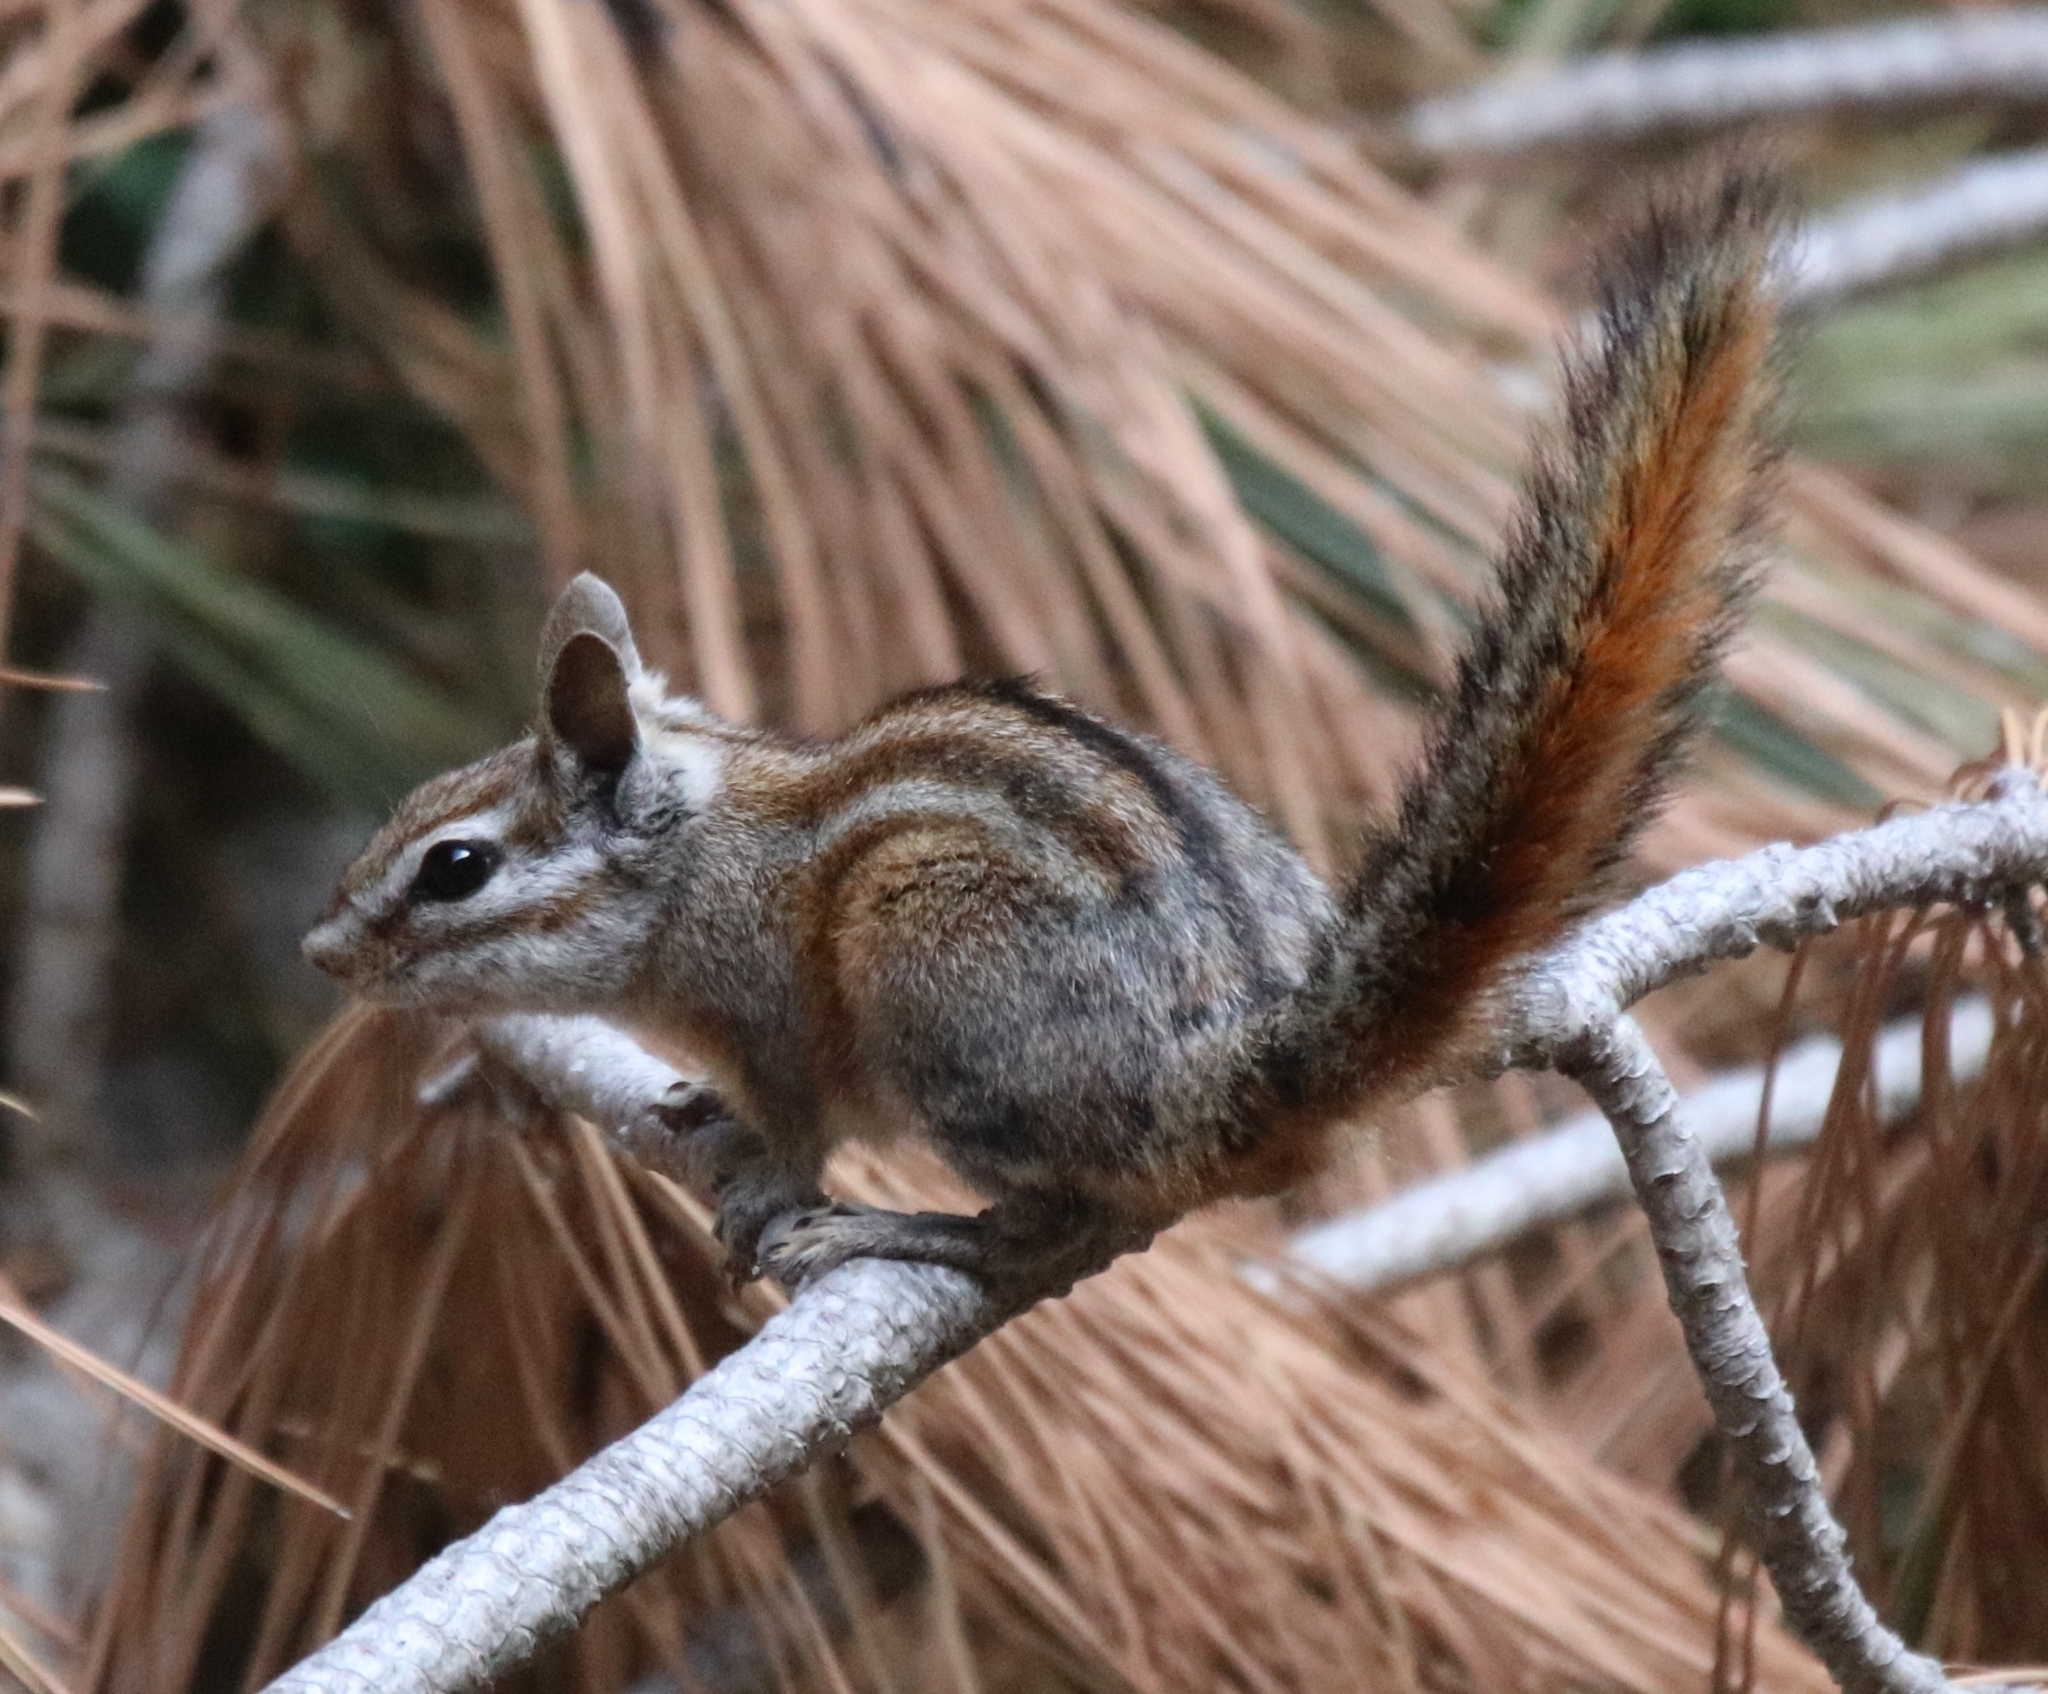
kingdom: Animalia
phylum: Chordata
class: Mammalia
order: Rodentia
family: Sciuridae
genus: Tamias
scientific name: Tamias merriami
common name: Merriam's chipmunk
